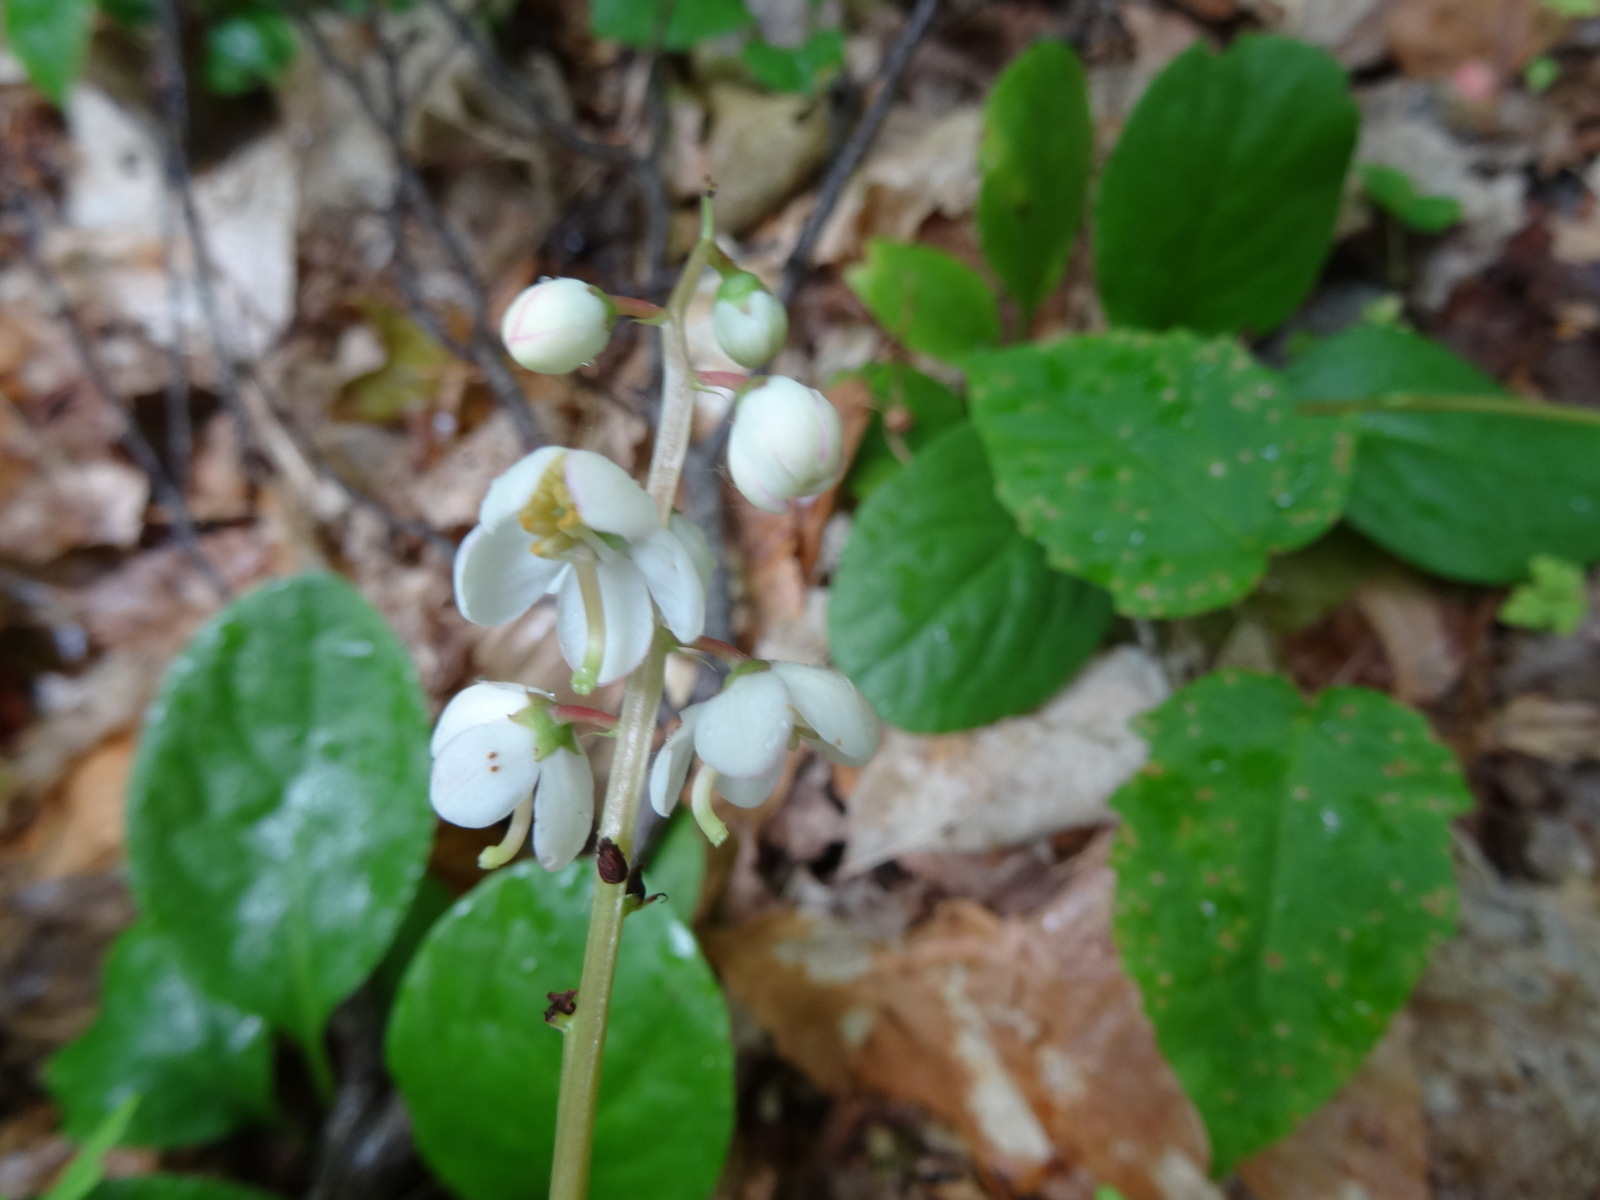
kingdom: Plantae
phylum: Tracheophyta
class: Magnoliopsida
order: Ericales
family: Ericaceae
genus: Pyrola
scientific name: Pyrola elliptica
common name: Shinleaf
